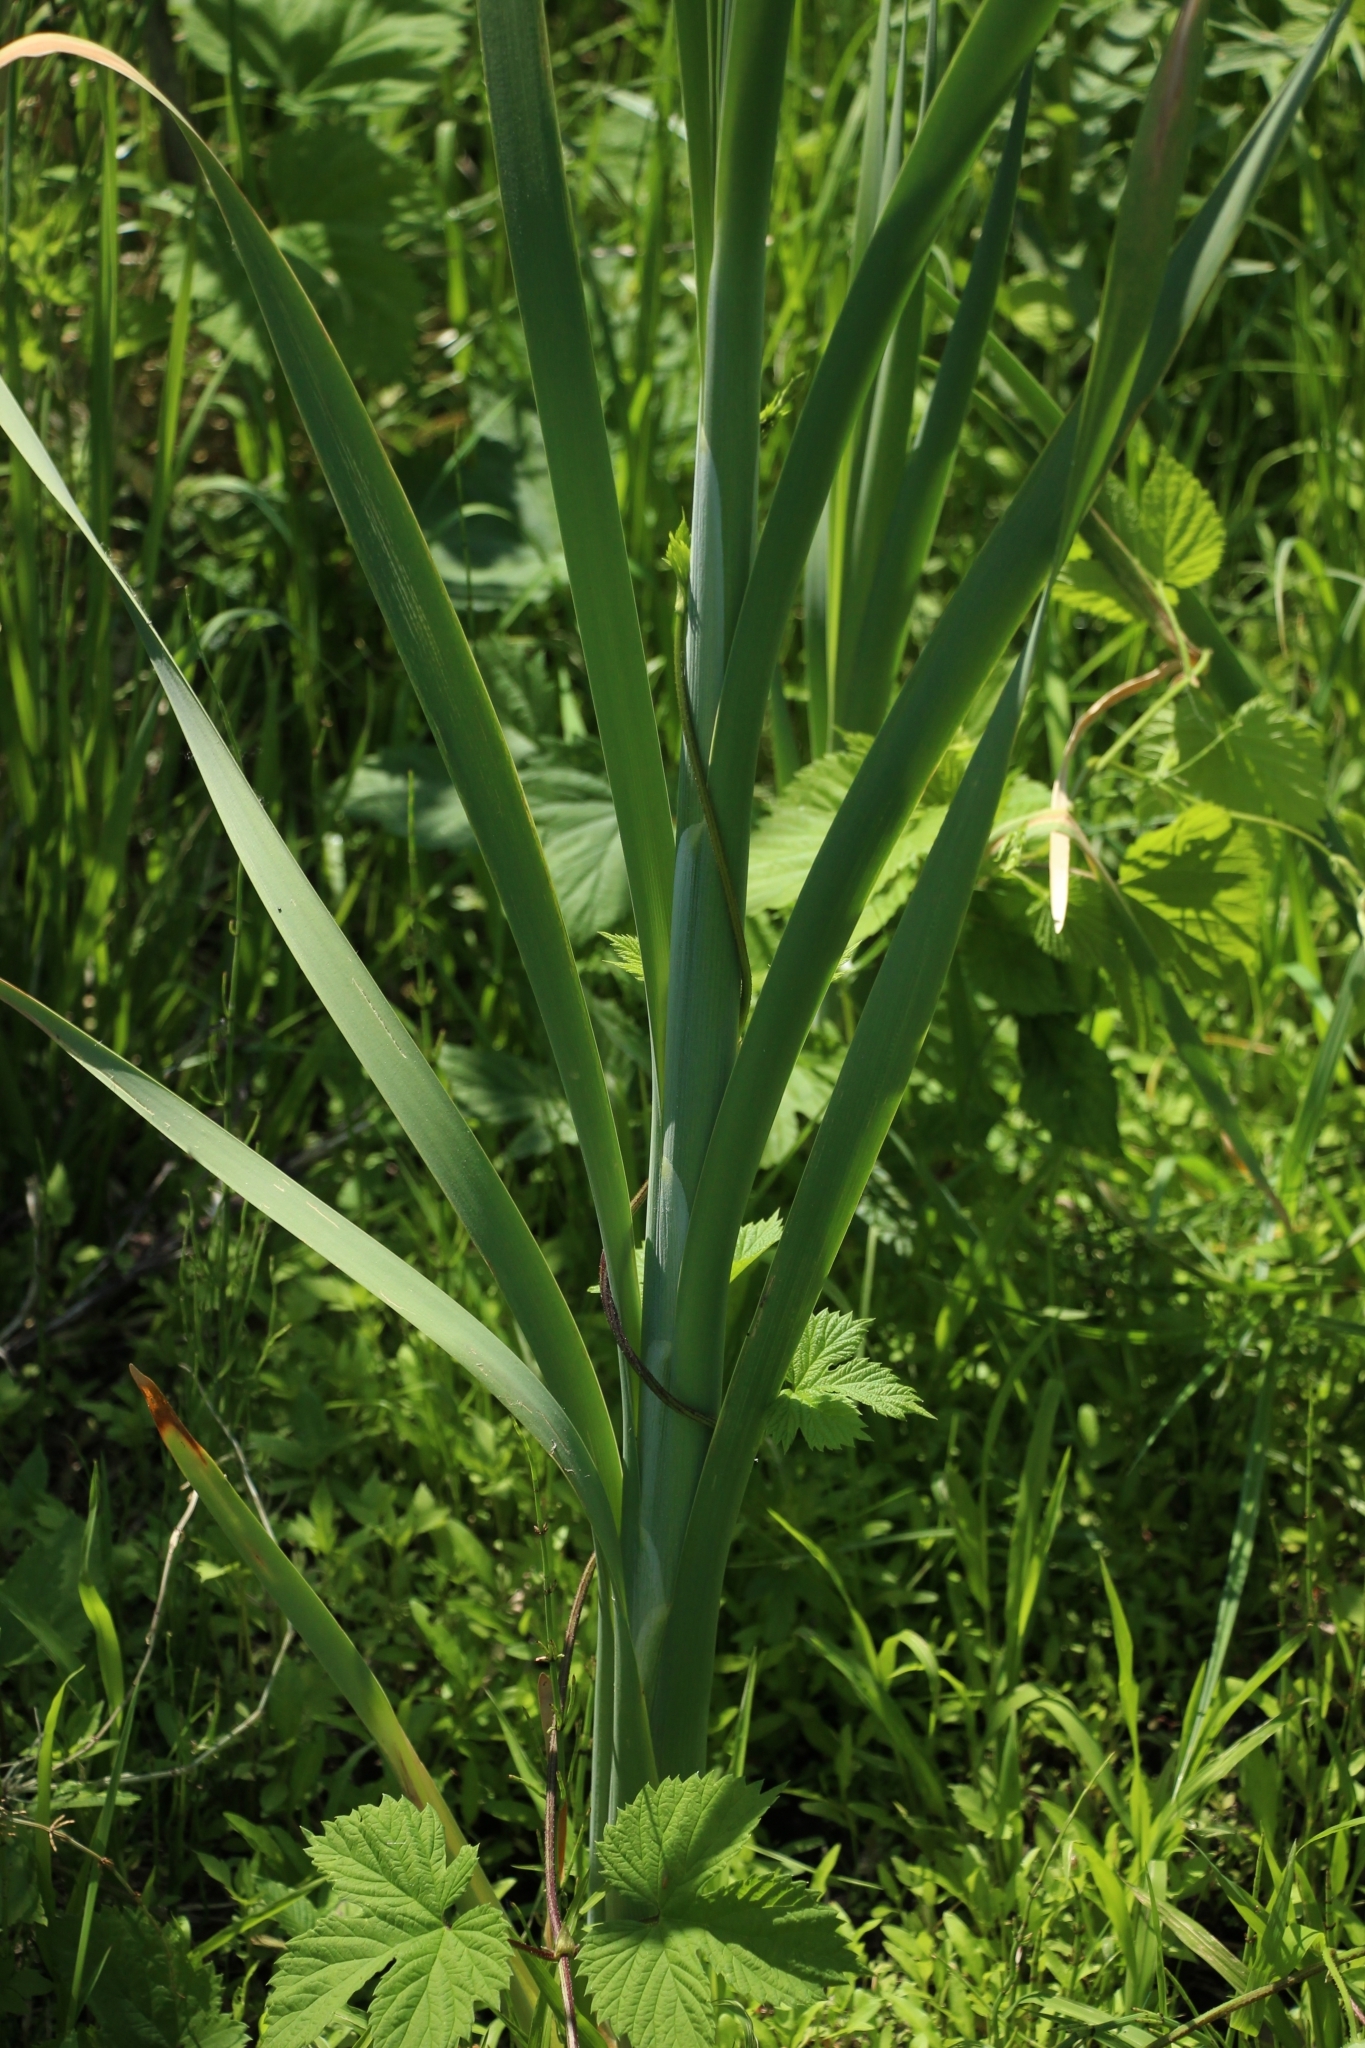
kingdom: Plantae
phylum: Tracheophyta
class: Liliopsida
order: Poales
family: Typhaceae
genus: Typha
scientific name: Typha latifolia
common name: Broadleaf cattail
